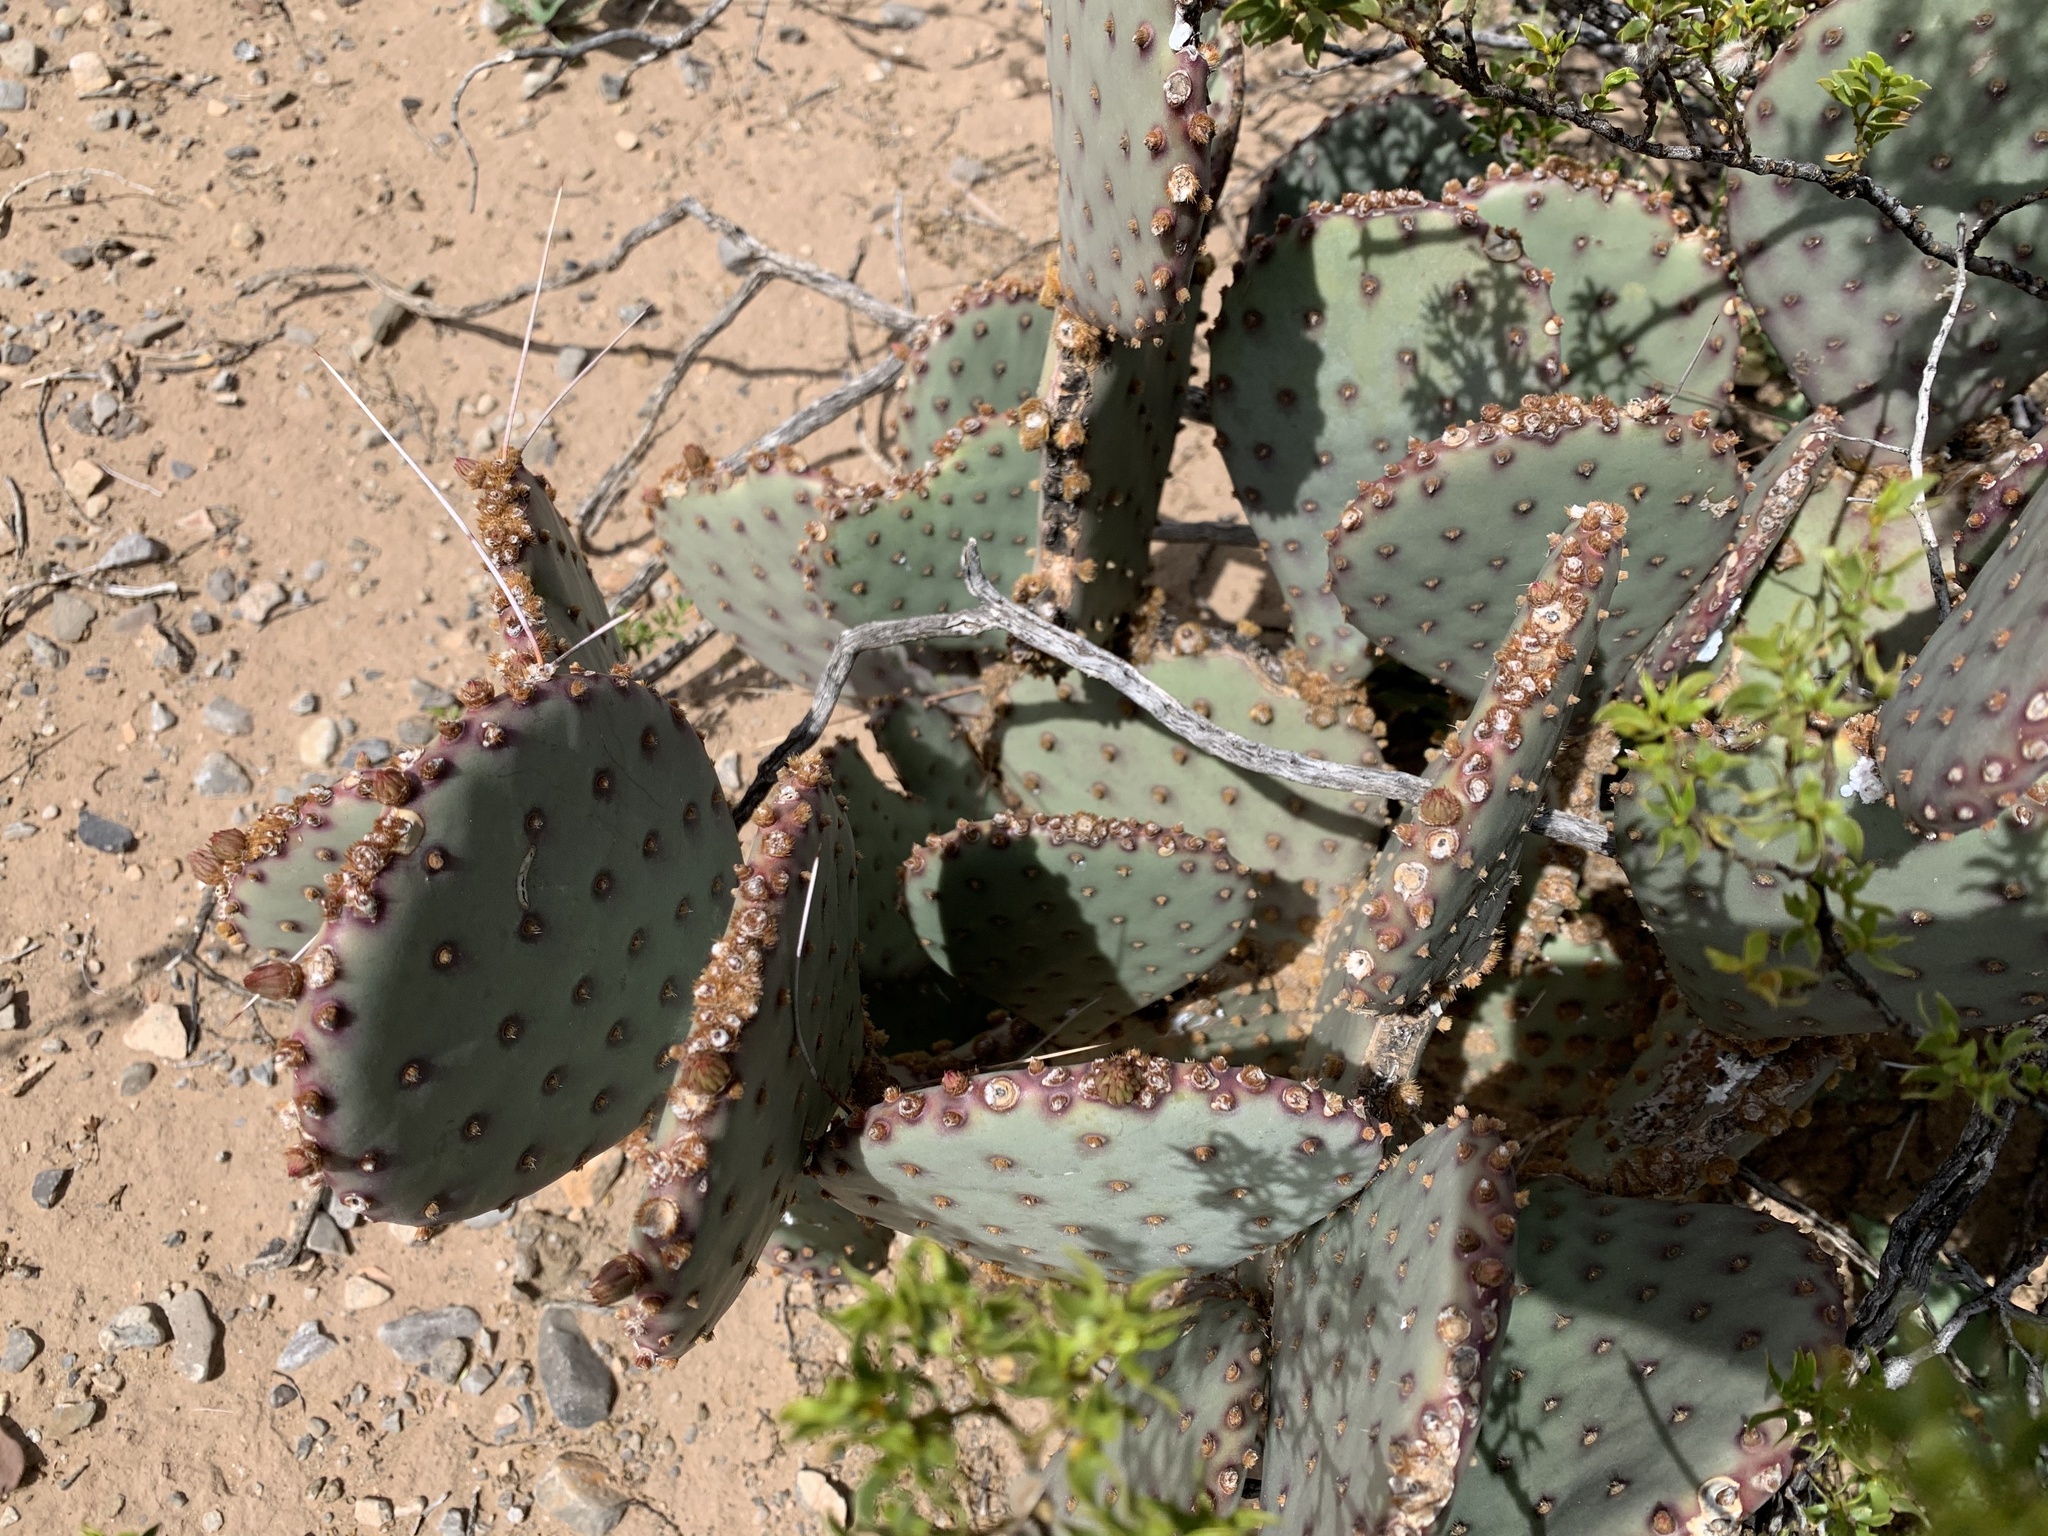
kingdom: Plantae
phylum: Tracheophyta
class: Magnoliopsida
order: Caryophyllales
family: Cactaceae
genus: Opuntia
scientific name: Opuntia macrocentra
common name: Purple prickly-pear
